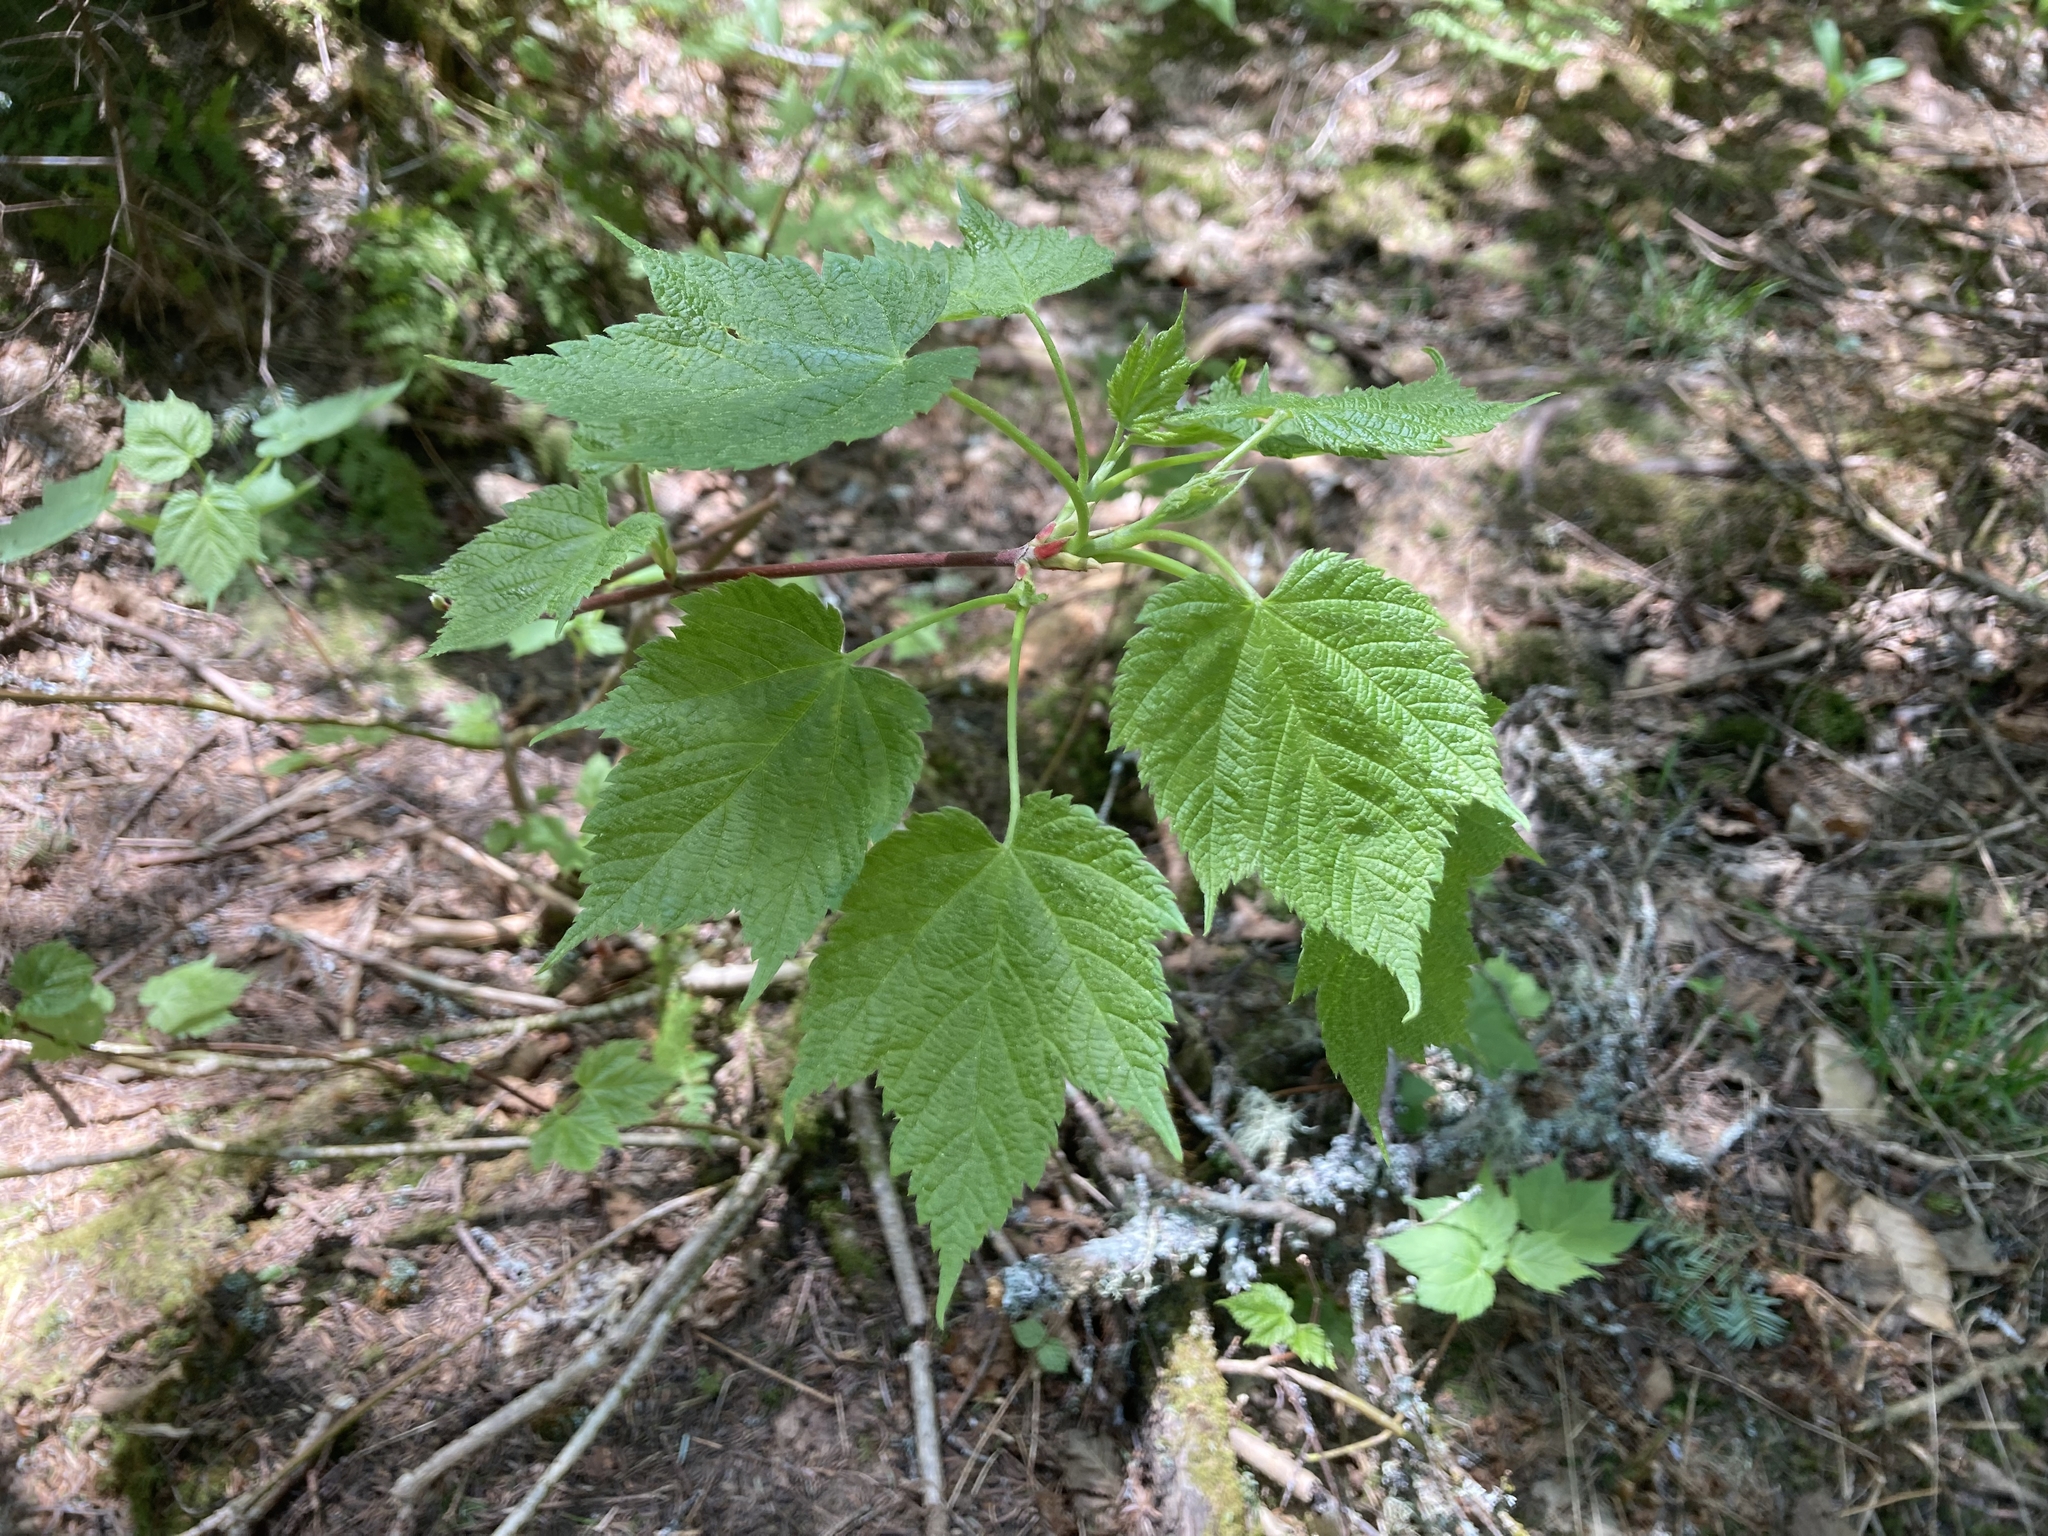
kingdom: Plantae
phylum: Tracheophyta
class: Magnoliopsida
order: Sapindales
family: Sapindaceae
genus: Acer
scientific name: Acer spicatum
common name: Mountain maple
